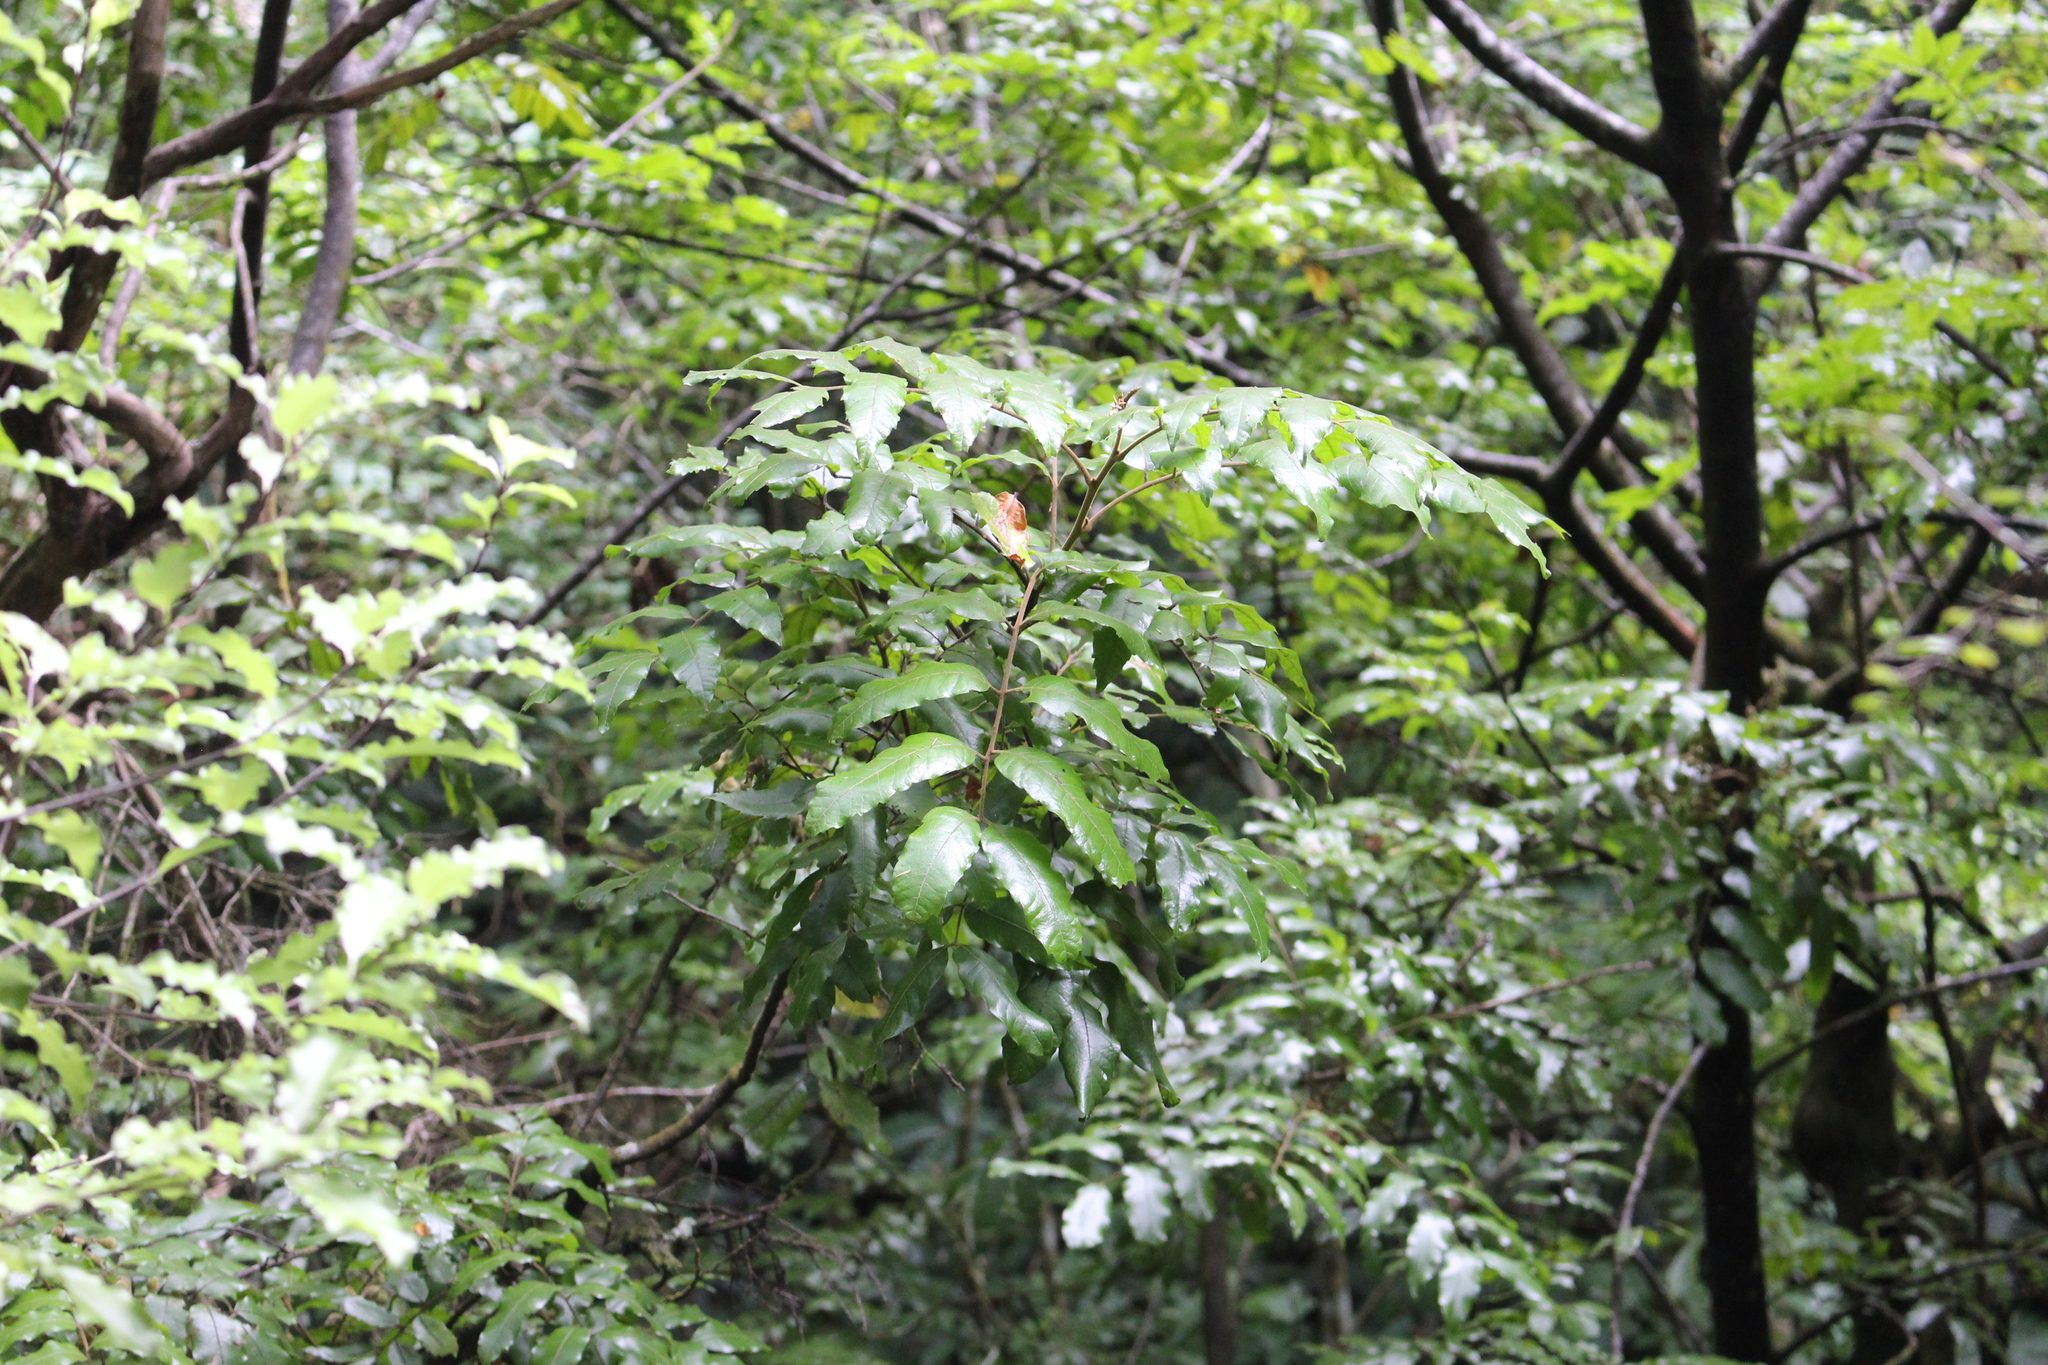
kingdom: Plantae
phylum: Tracheophyta
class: Magnoliopsida
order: Sapindales
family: Sapindaceae
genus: Alectryon
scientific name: Alectryon excelsus
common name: Three kings titoki
